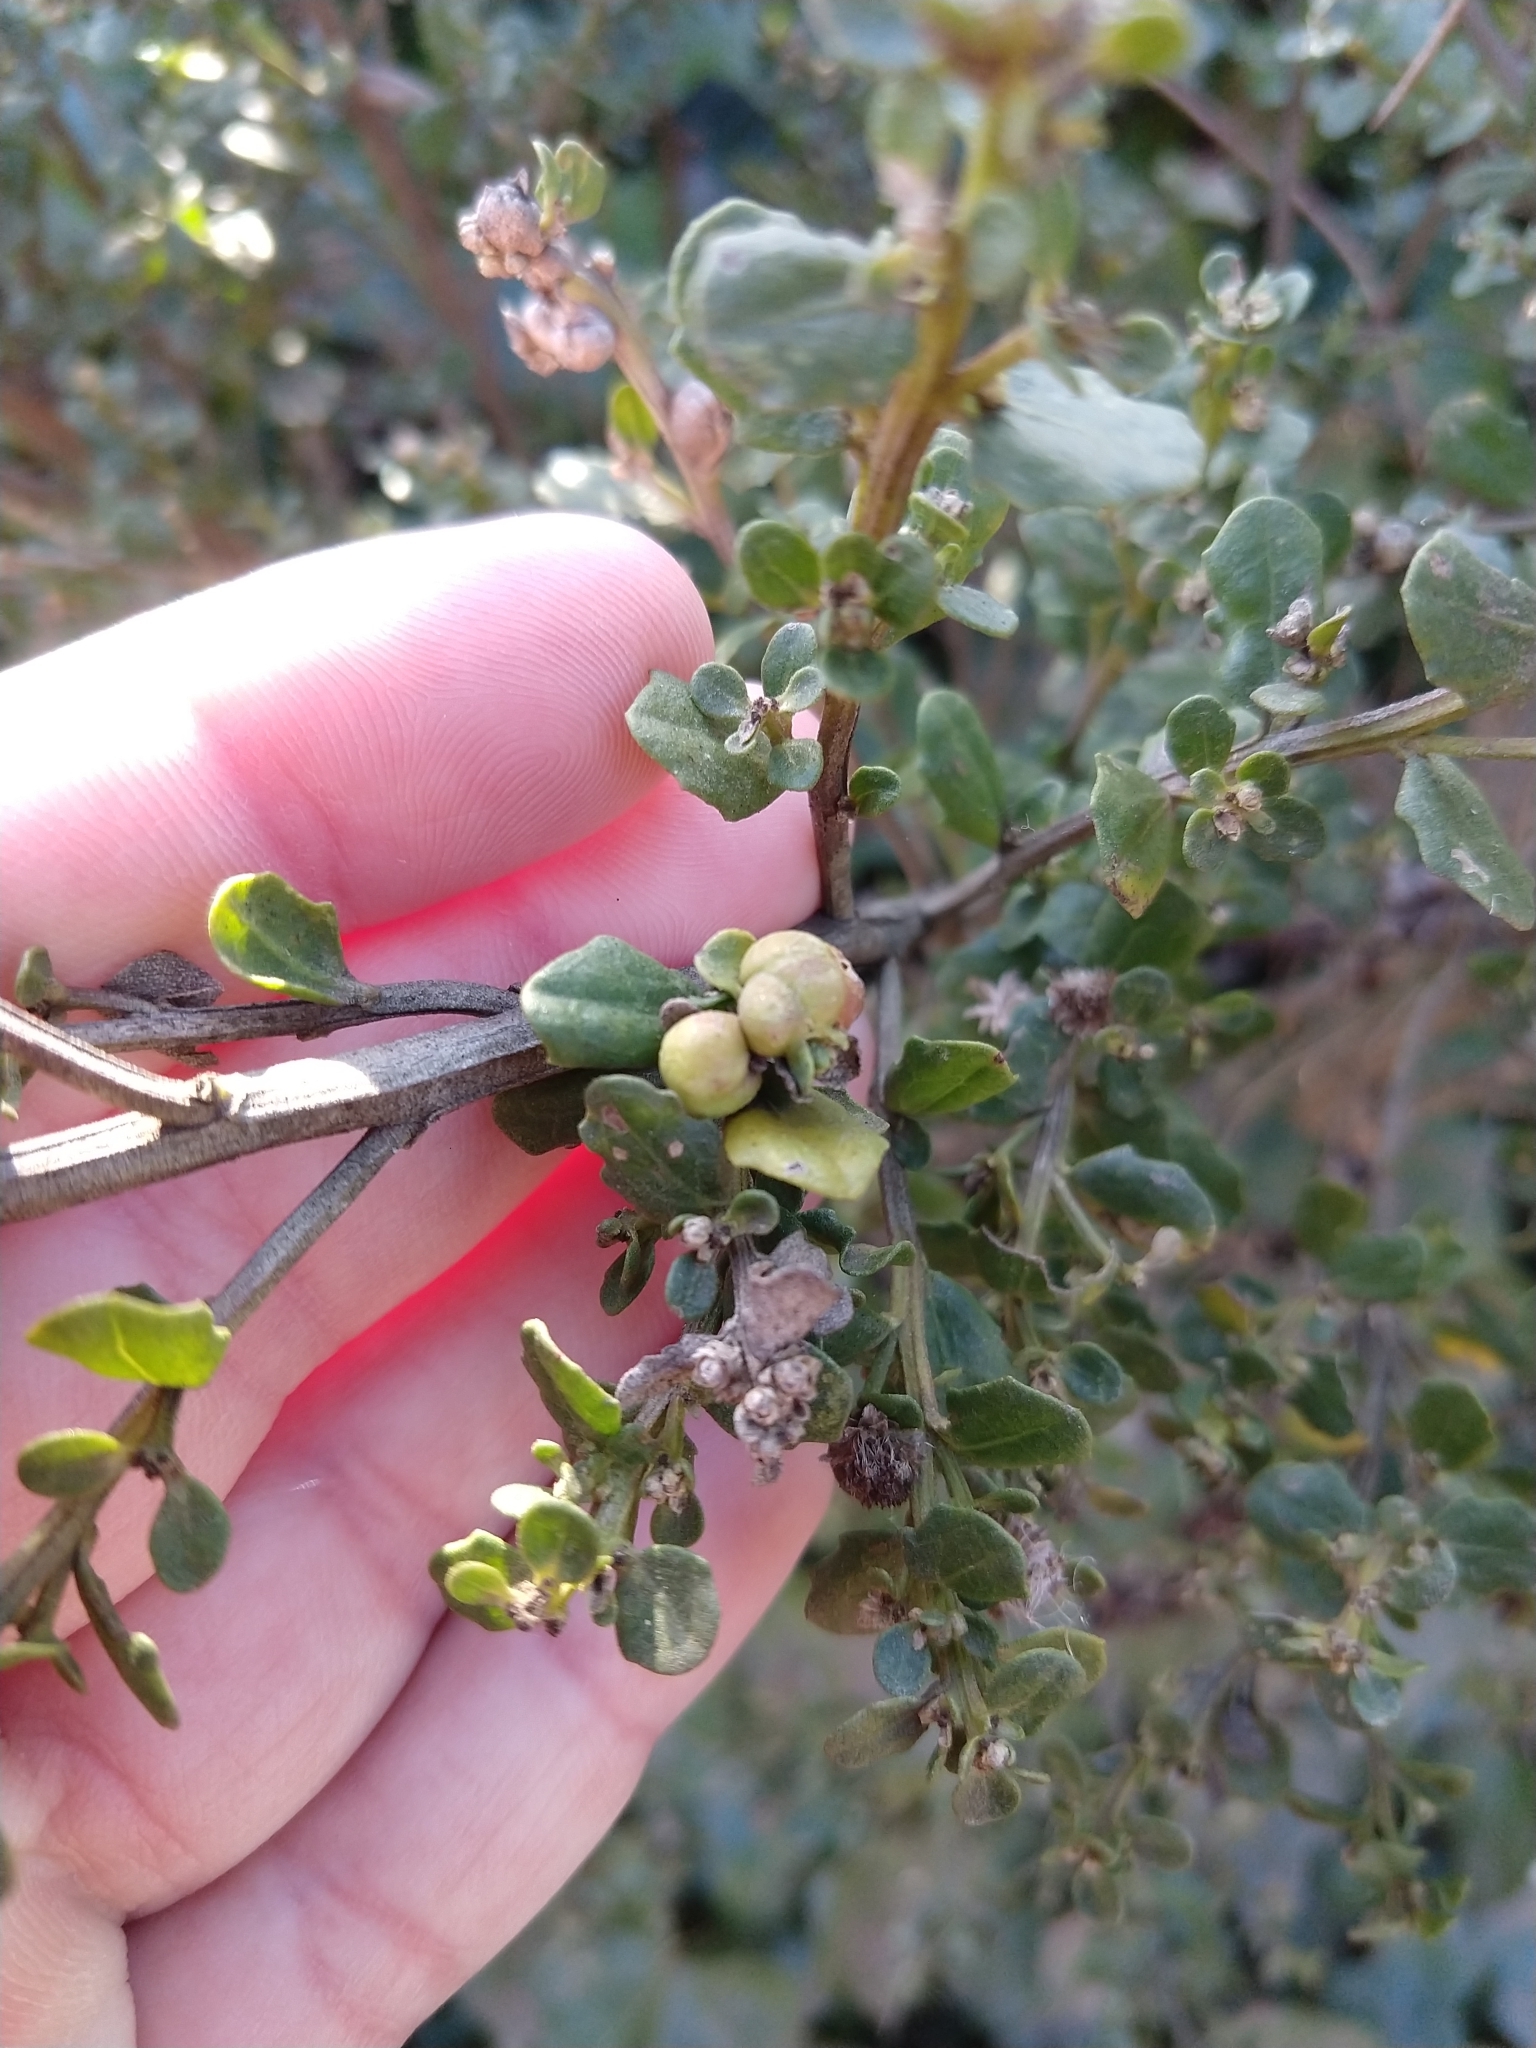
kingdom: Animalia
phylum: Arthropoda
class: Insecta
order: Diptera
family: Cecidomyiidae
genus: Rhopalomyia
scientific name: Rhopalomyia californica
